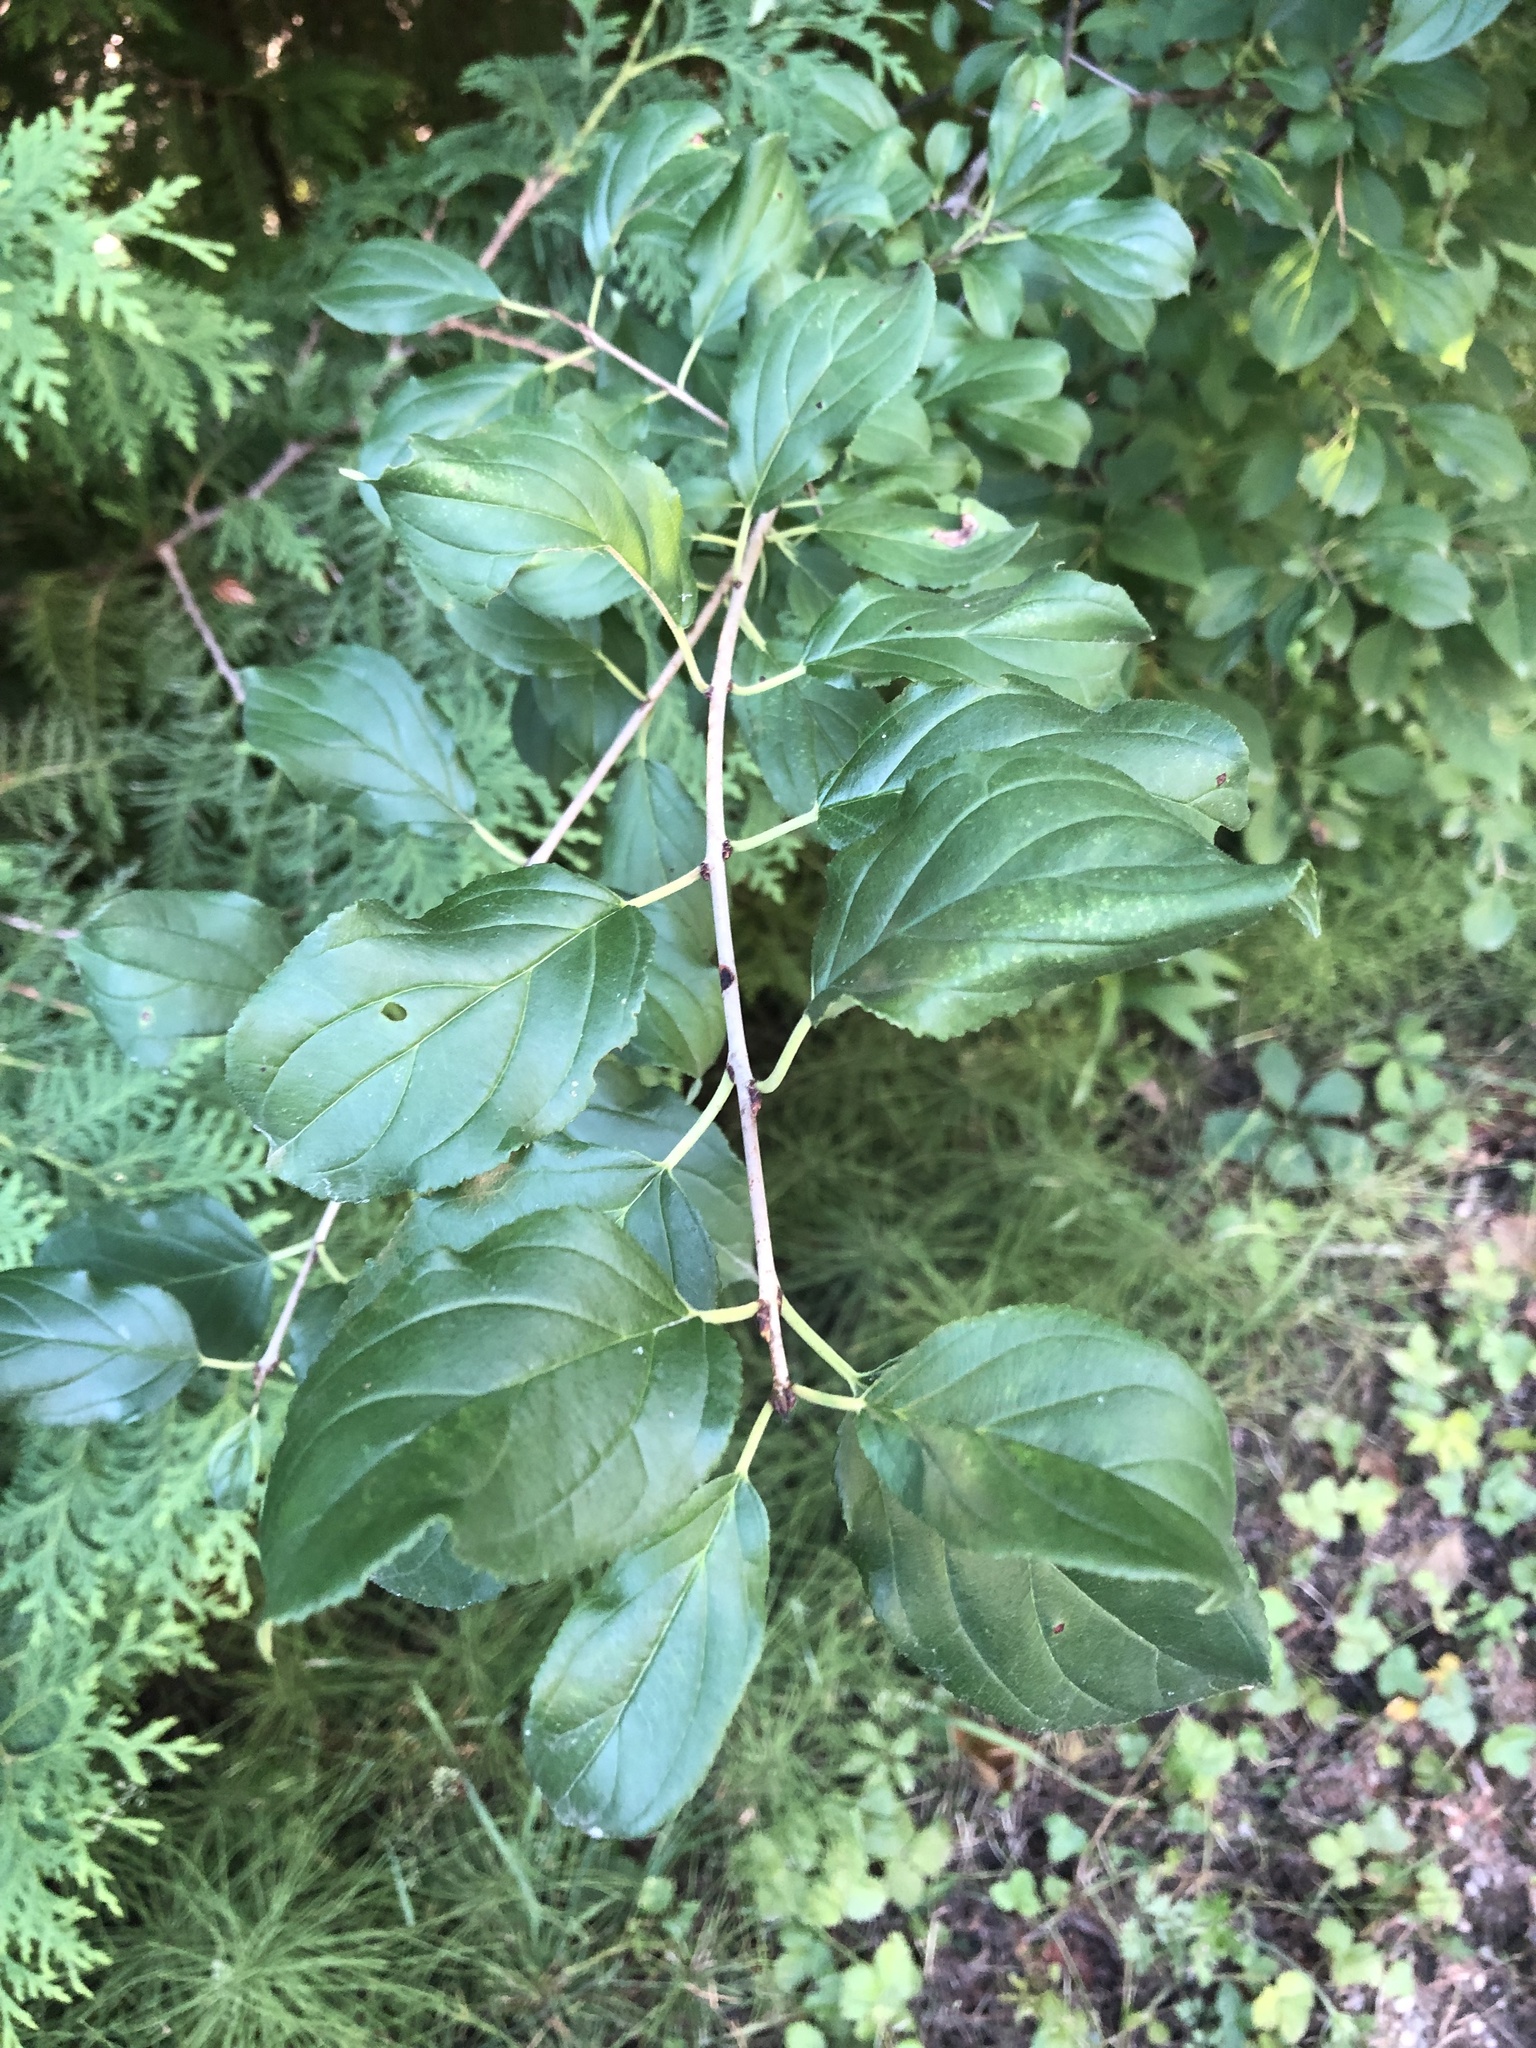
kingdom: Plantae
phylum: Tracheophyta
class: Magnoliopsida
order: Rosales
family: Rhamnaceae
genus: Rhamnus
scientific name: Rhamnus cathartica
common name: Common buckthorn
